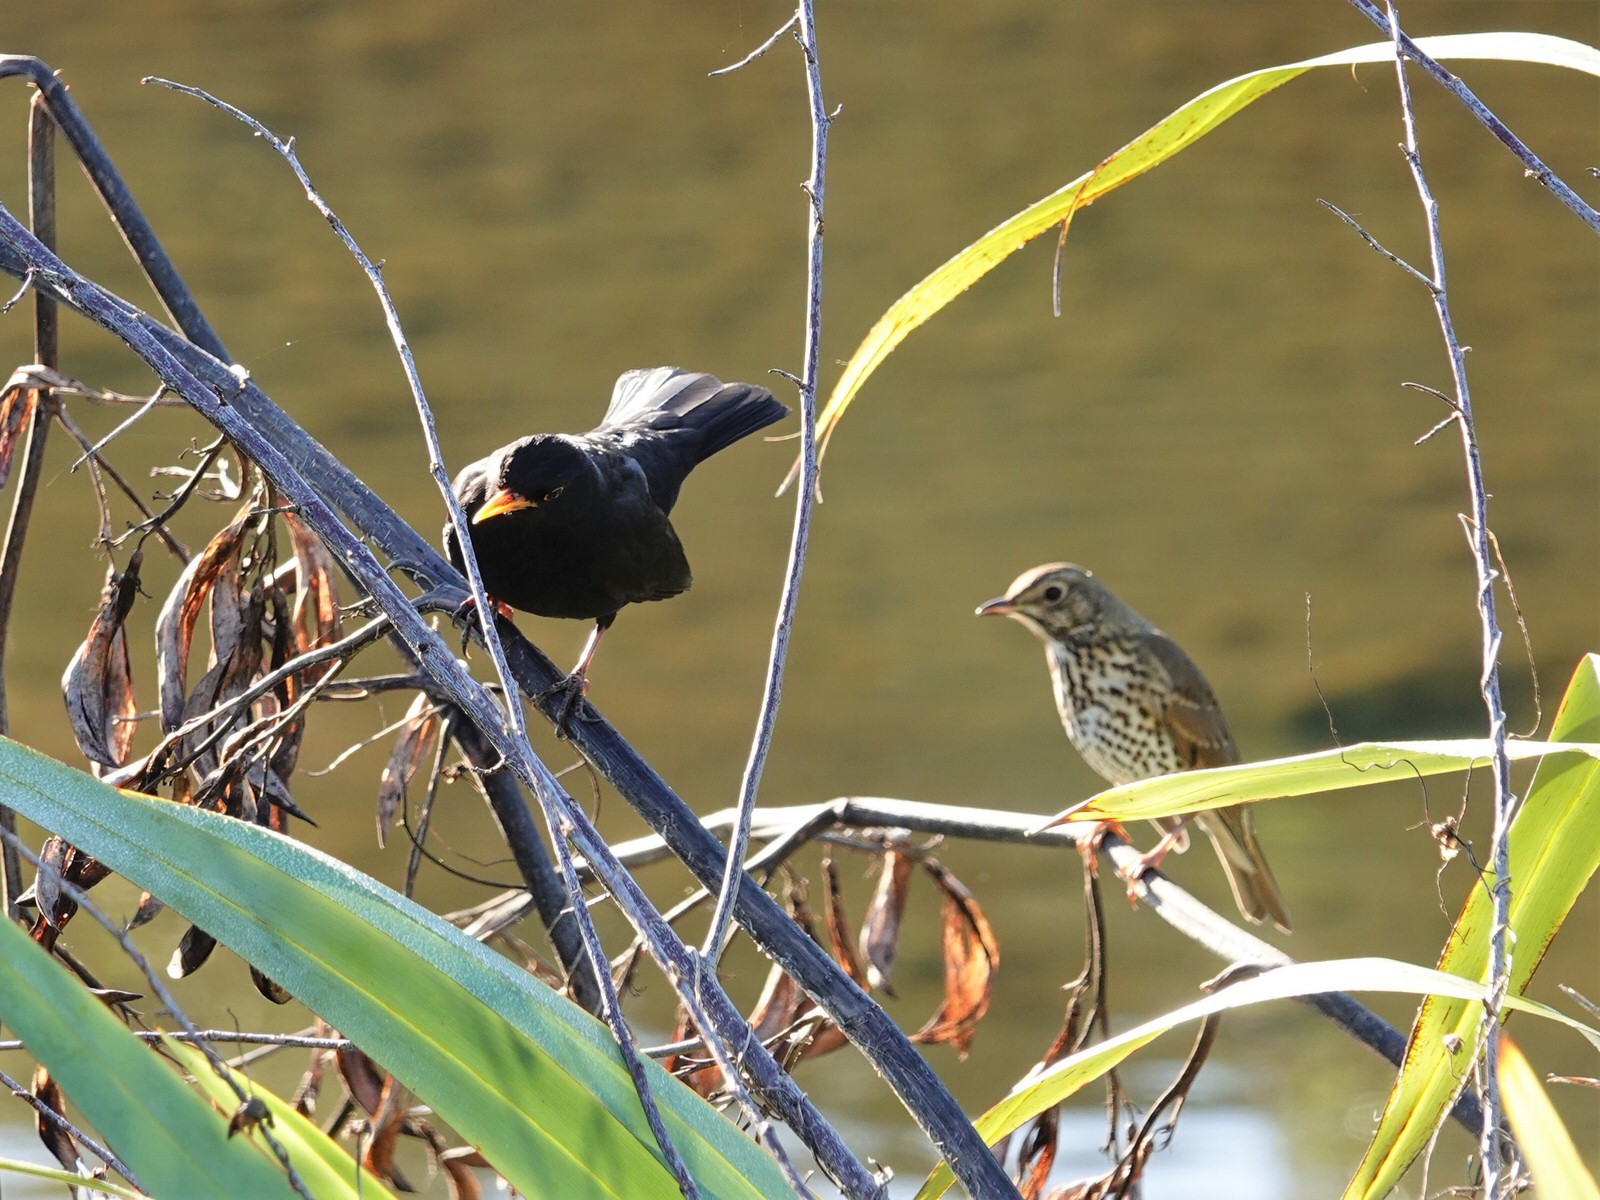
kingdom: Animalia
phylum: Chordata
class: Aves
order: Passeriformes
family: Turdidae
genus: Turdus
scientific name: Turdus merula
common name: Common blackbird
